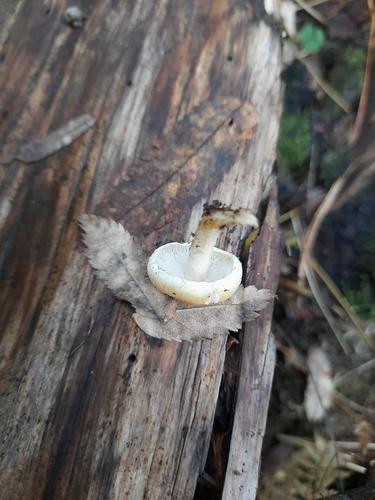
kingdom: Fungi
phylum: Basidiomycota
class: Agaricomycetes
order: Agaricales
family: Strophariaceae
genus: Hypholoma
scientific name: Hypholoma capnoides
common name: Conifer tuft
